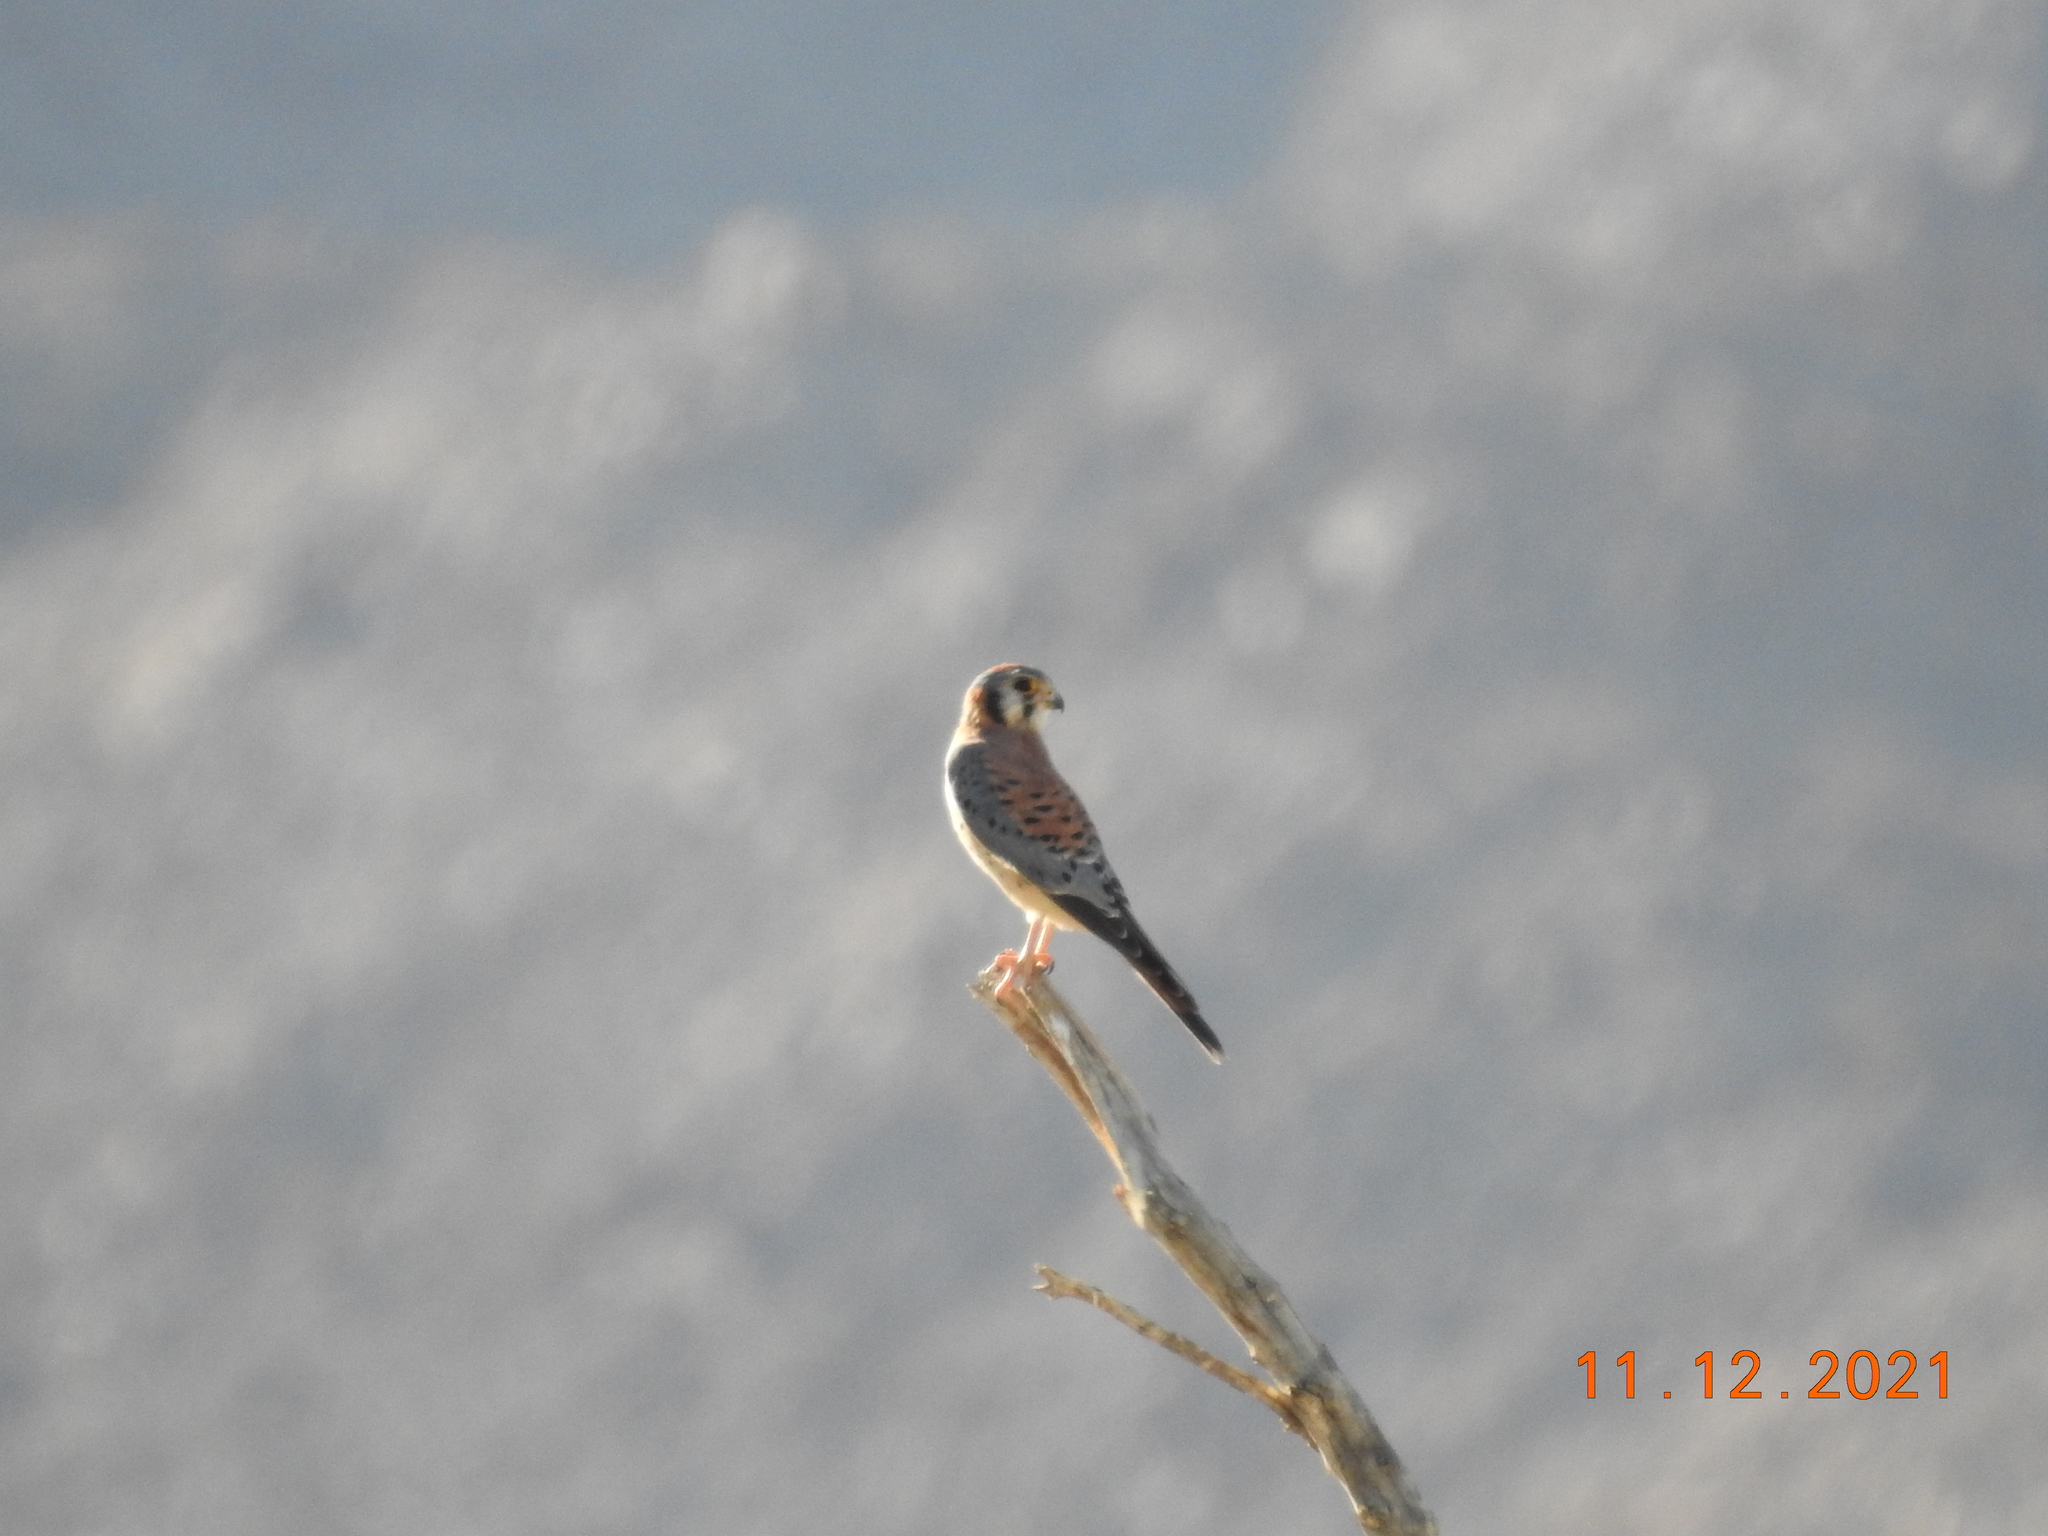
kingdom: Animalia
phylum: Chordata
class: Aves
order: Falconiformes
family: Falconidae
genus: Falco
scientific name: Falco sparverius
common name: American kestrel
